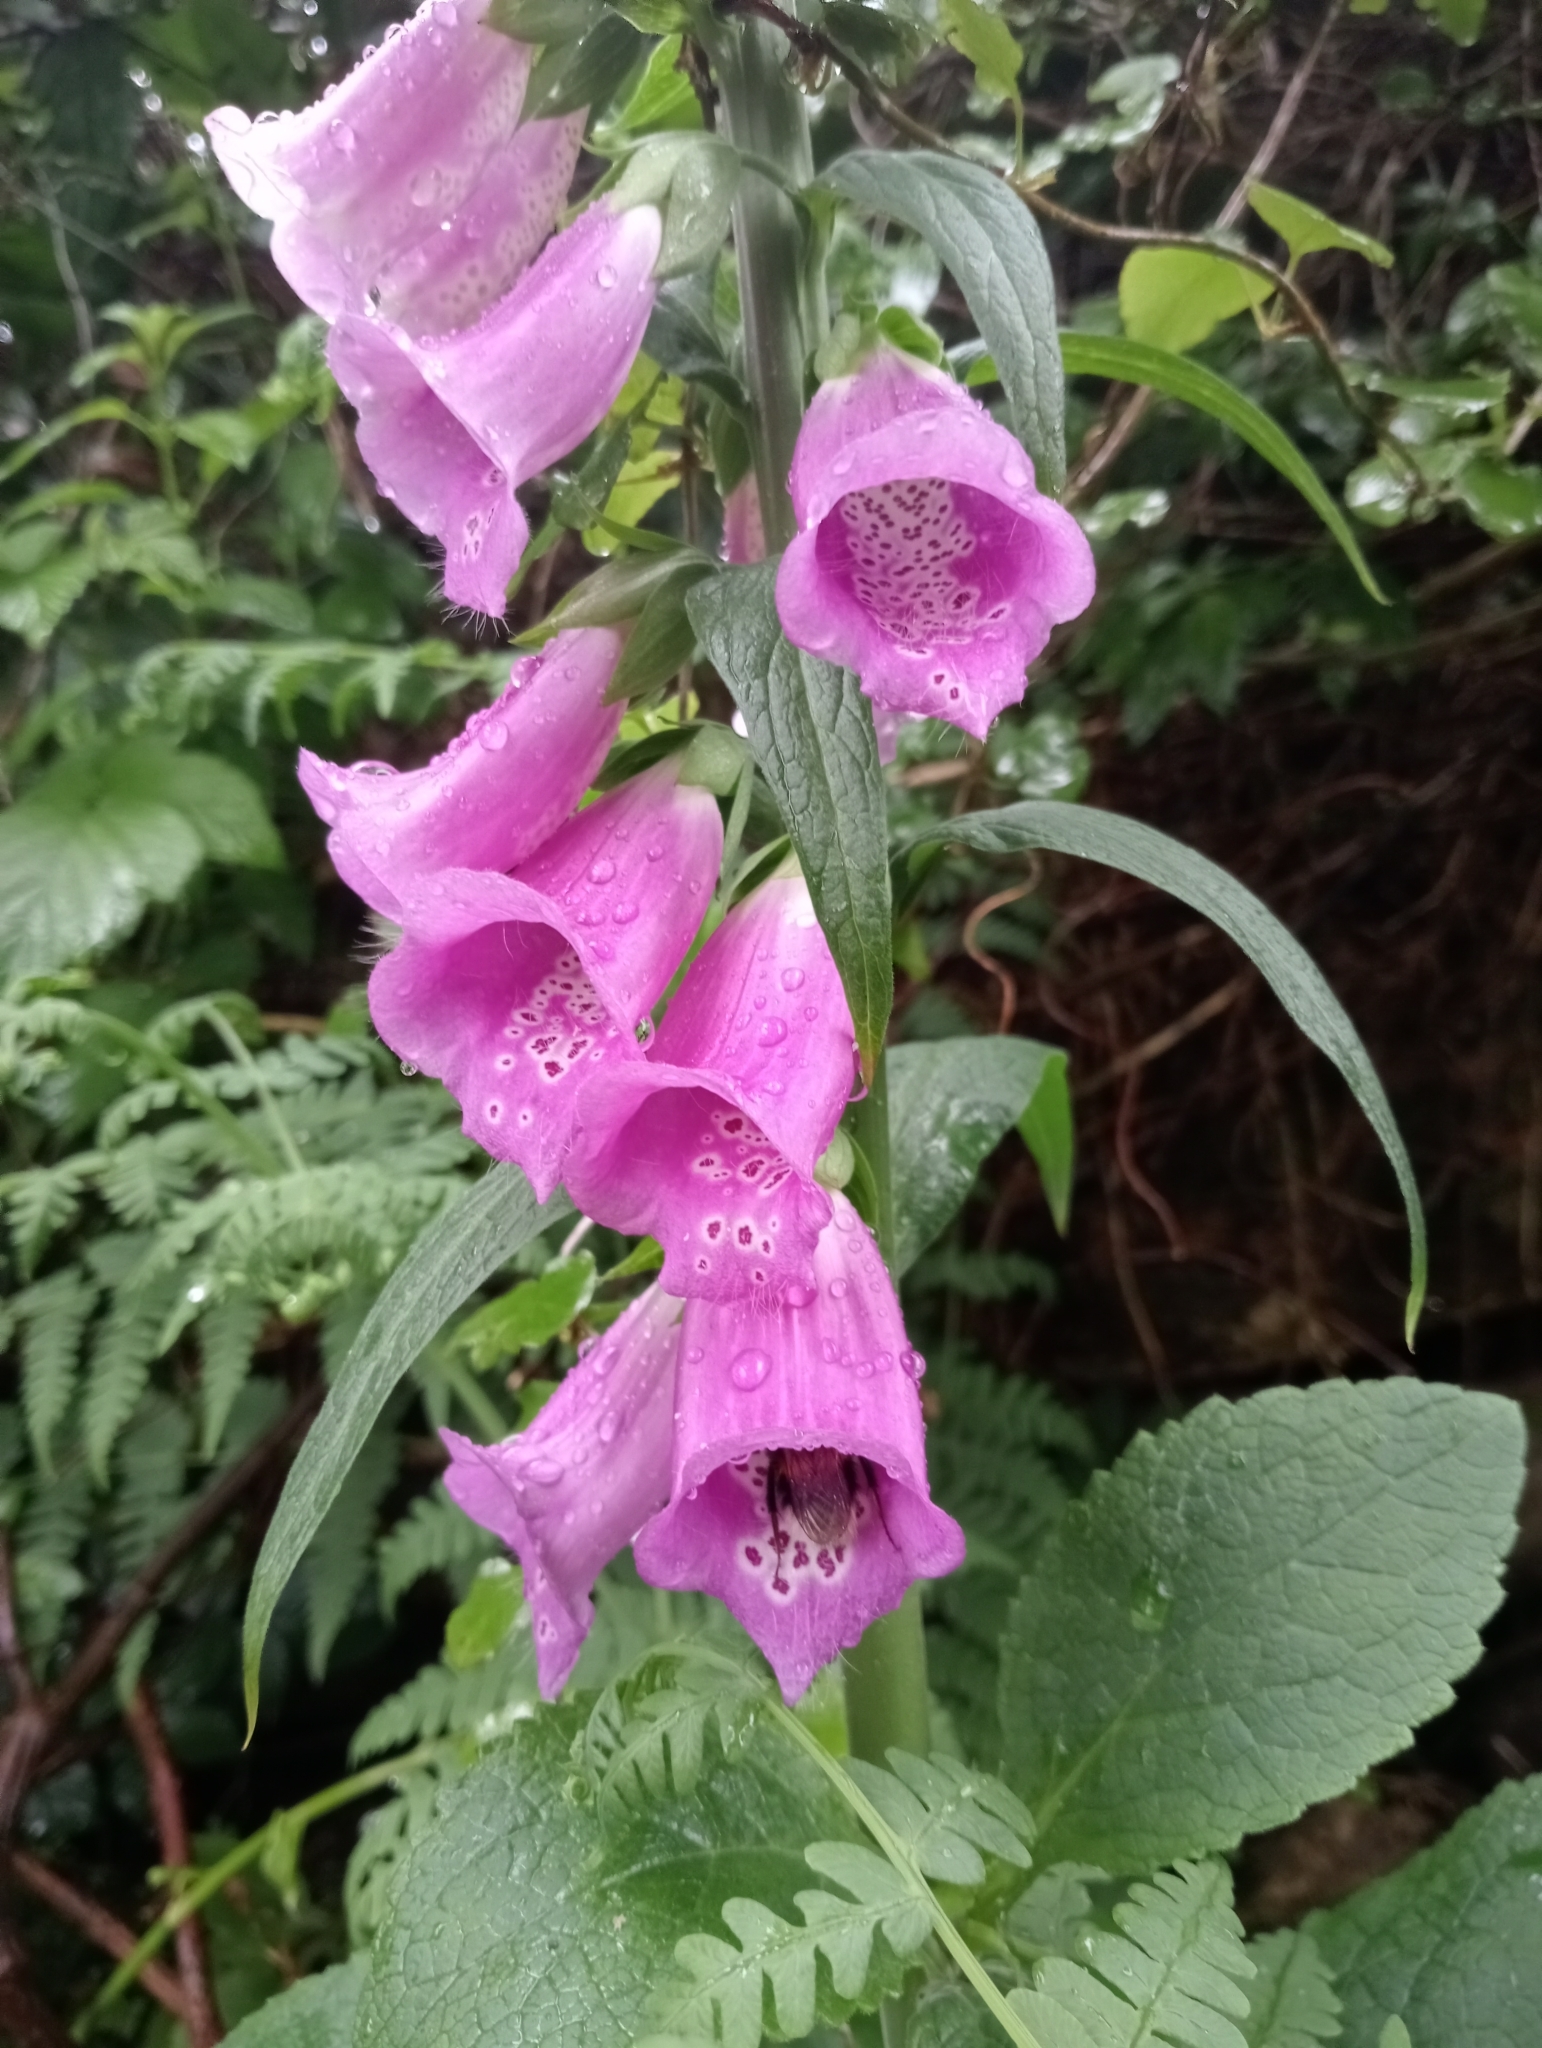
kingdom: Plantae
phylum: Tracheophyta
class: Magnoliopsida
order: Lamiales
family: Plantaginaceae
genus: Digitalis
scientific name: Digitalis purpurea
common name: Foxglove
